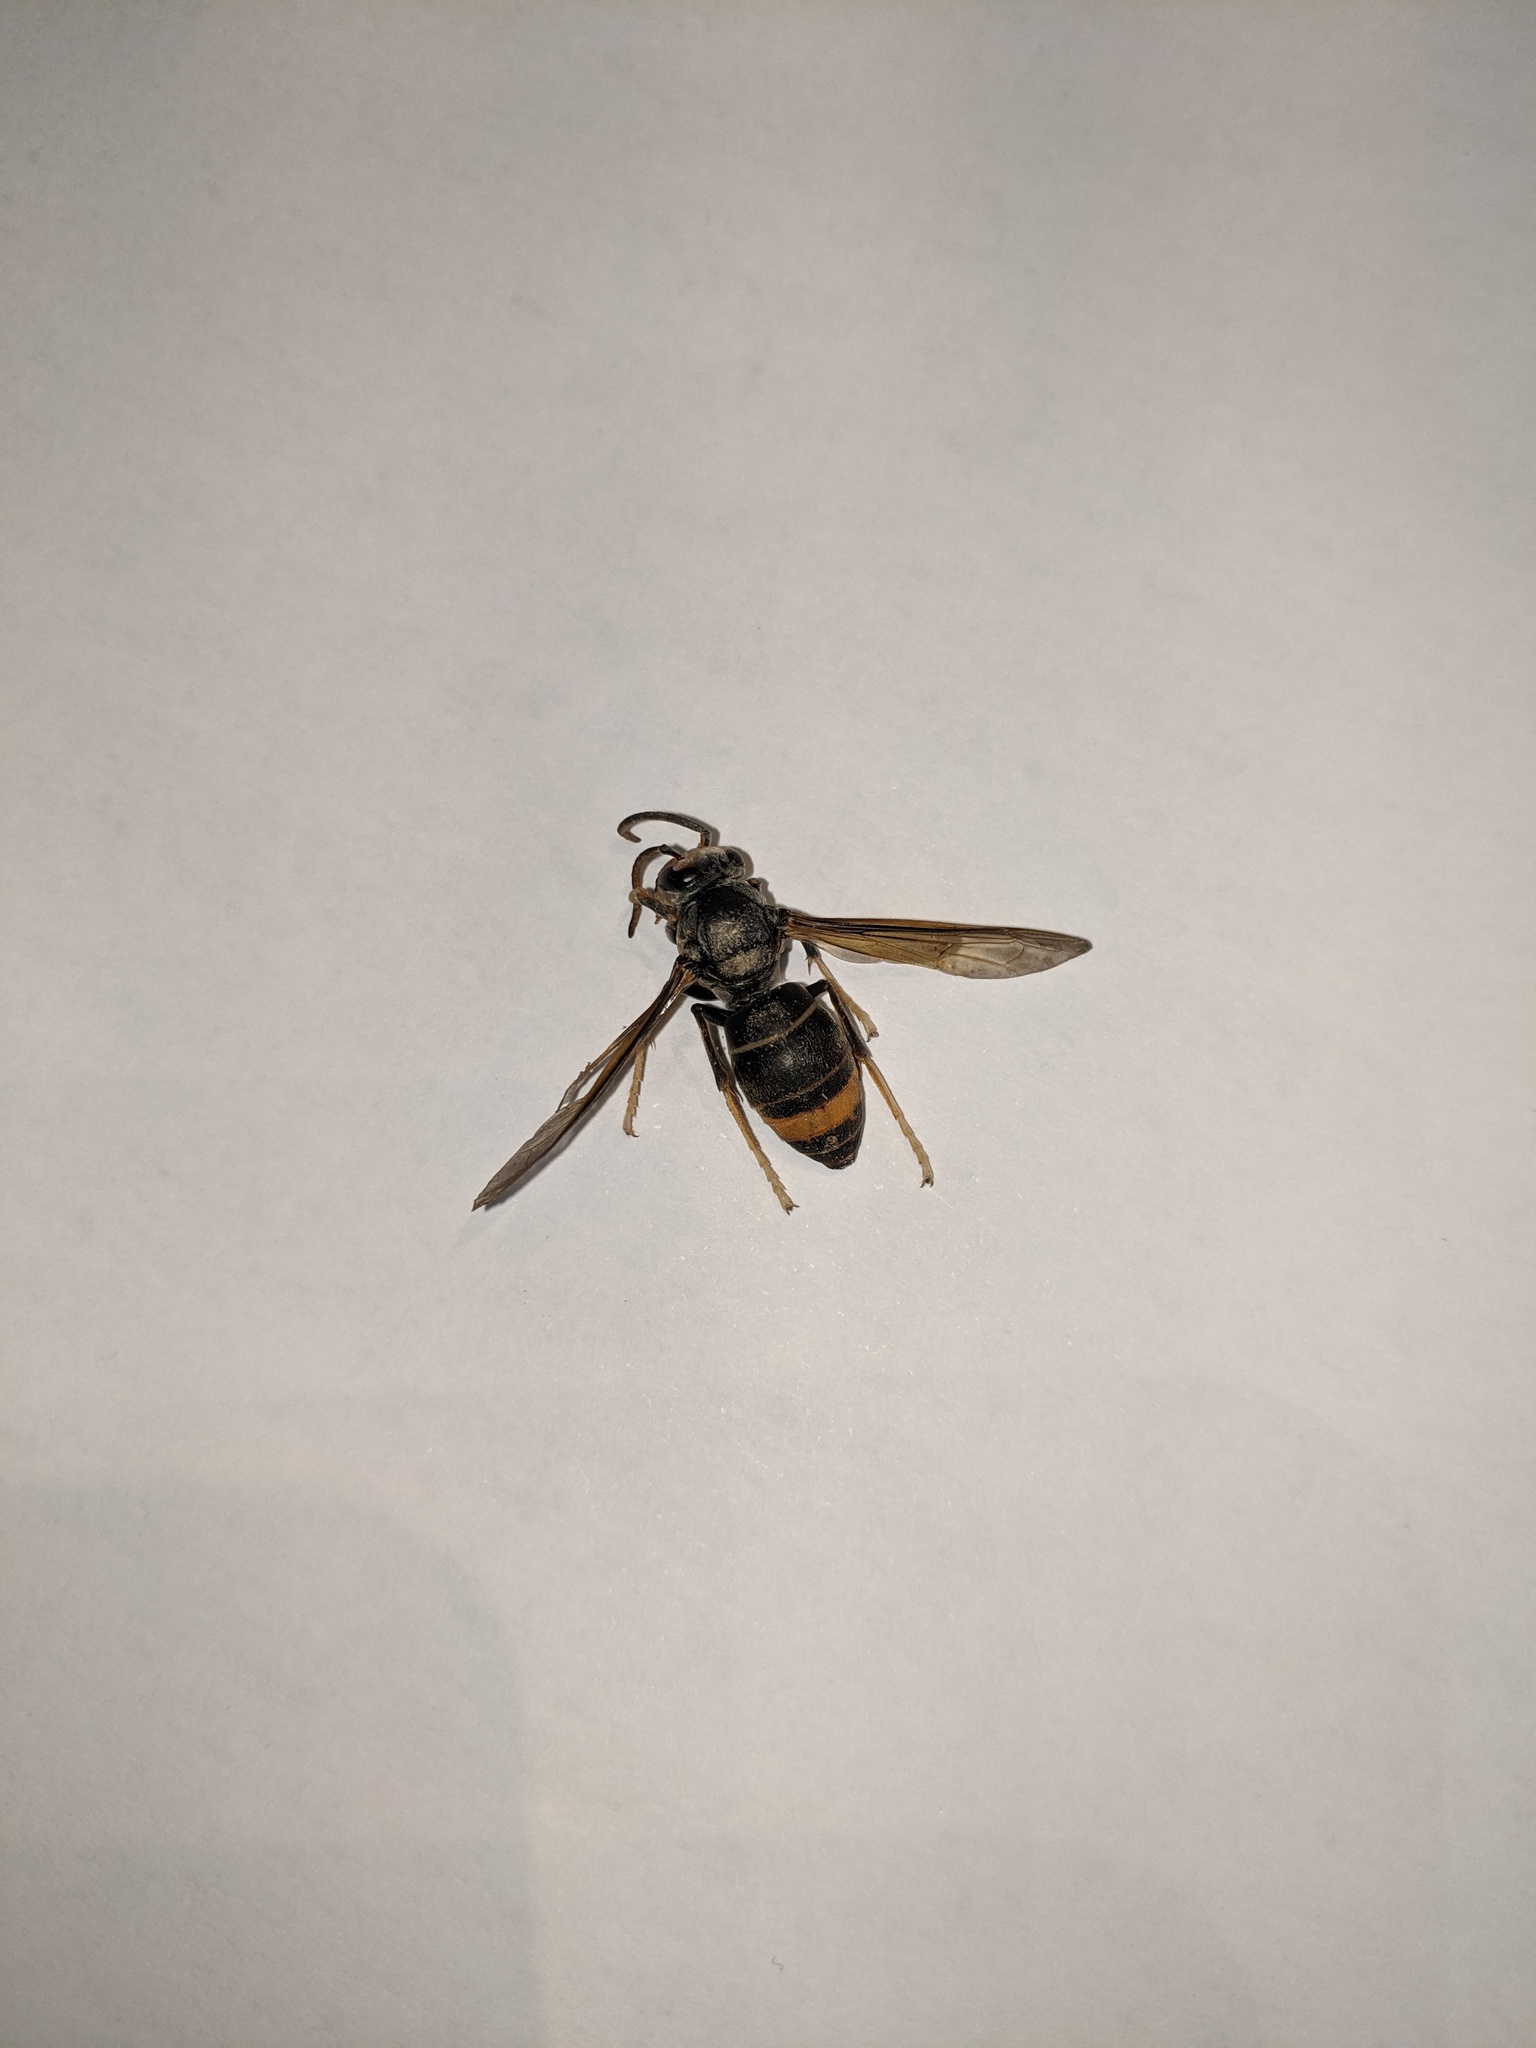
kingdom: Animalia
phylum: Arthropoda
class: Insecta
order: Hymenoptera
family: Vespidae
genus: Vespa
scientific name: Vespa velutina
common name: Asian hornet
